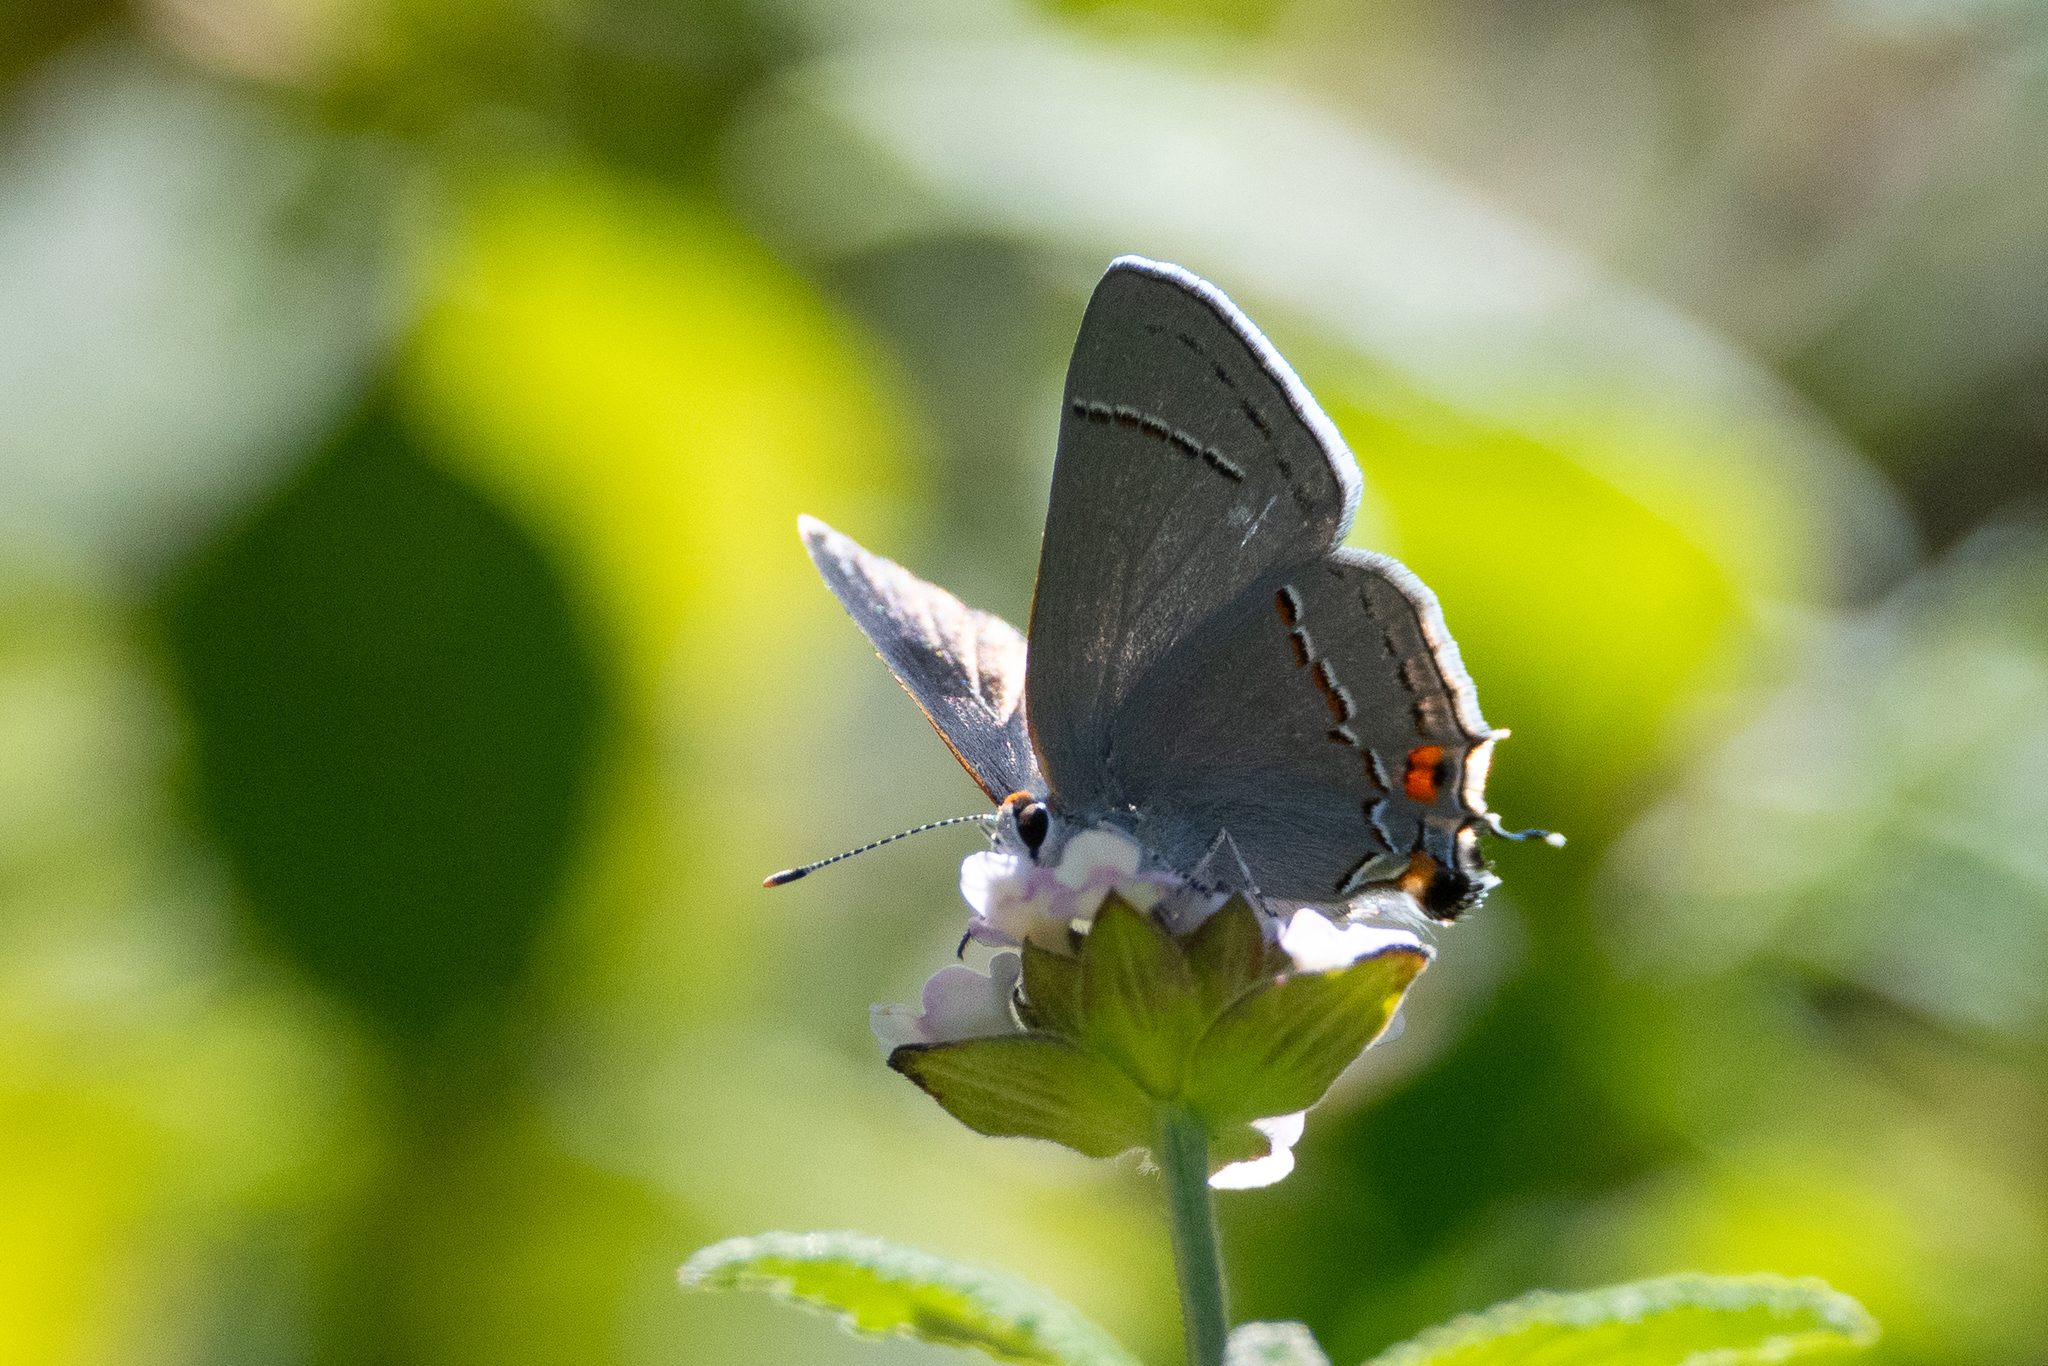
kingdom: Animalia
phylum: Arthropoda
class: Insecta
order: Lepidoptera
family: Lycaenidae
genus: Strymon
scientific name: Strymon melinus
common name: Gray hairstreak
